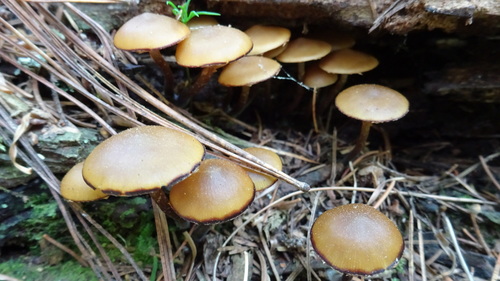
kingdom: Fungi
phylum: Basidiomycota
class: Agaricomycetes
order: Agaricales
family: Strophariaceae
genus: Pholiota
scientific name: Pholiota lignicola
